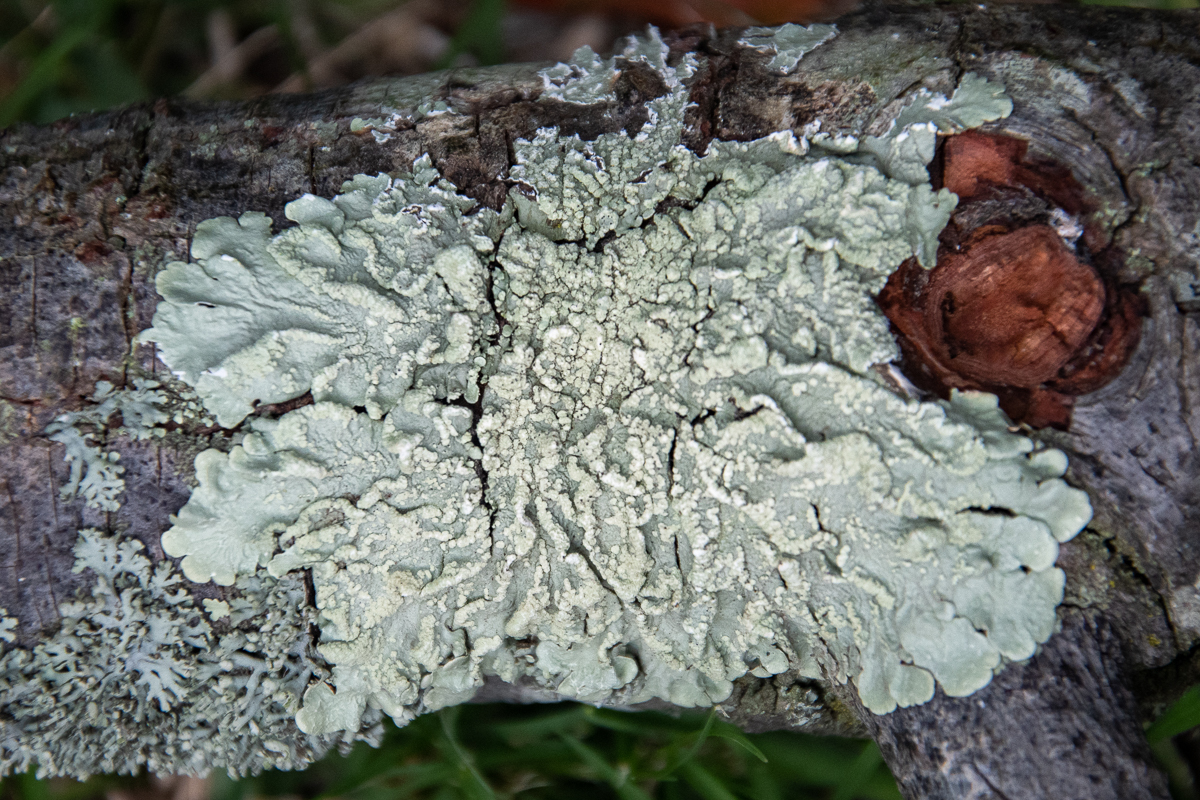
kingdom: Fungi
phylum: Ascomycota
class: Lecanoromycetes
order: Lecanorales
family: Parmeliaceae
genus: Flavoparmelia
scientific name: Flavoparmelia soredians
